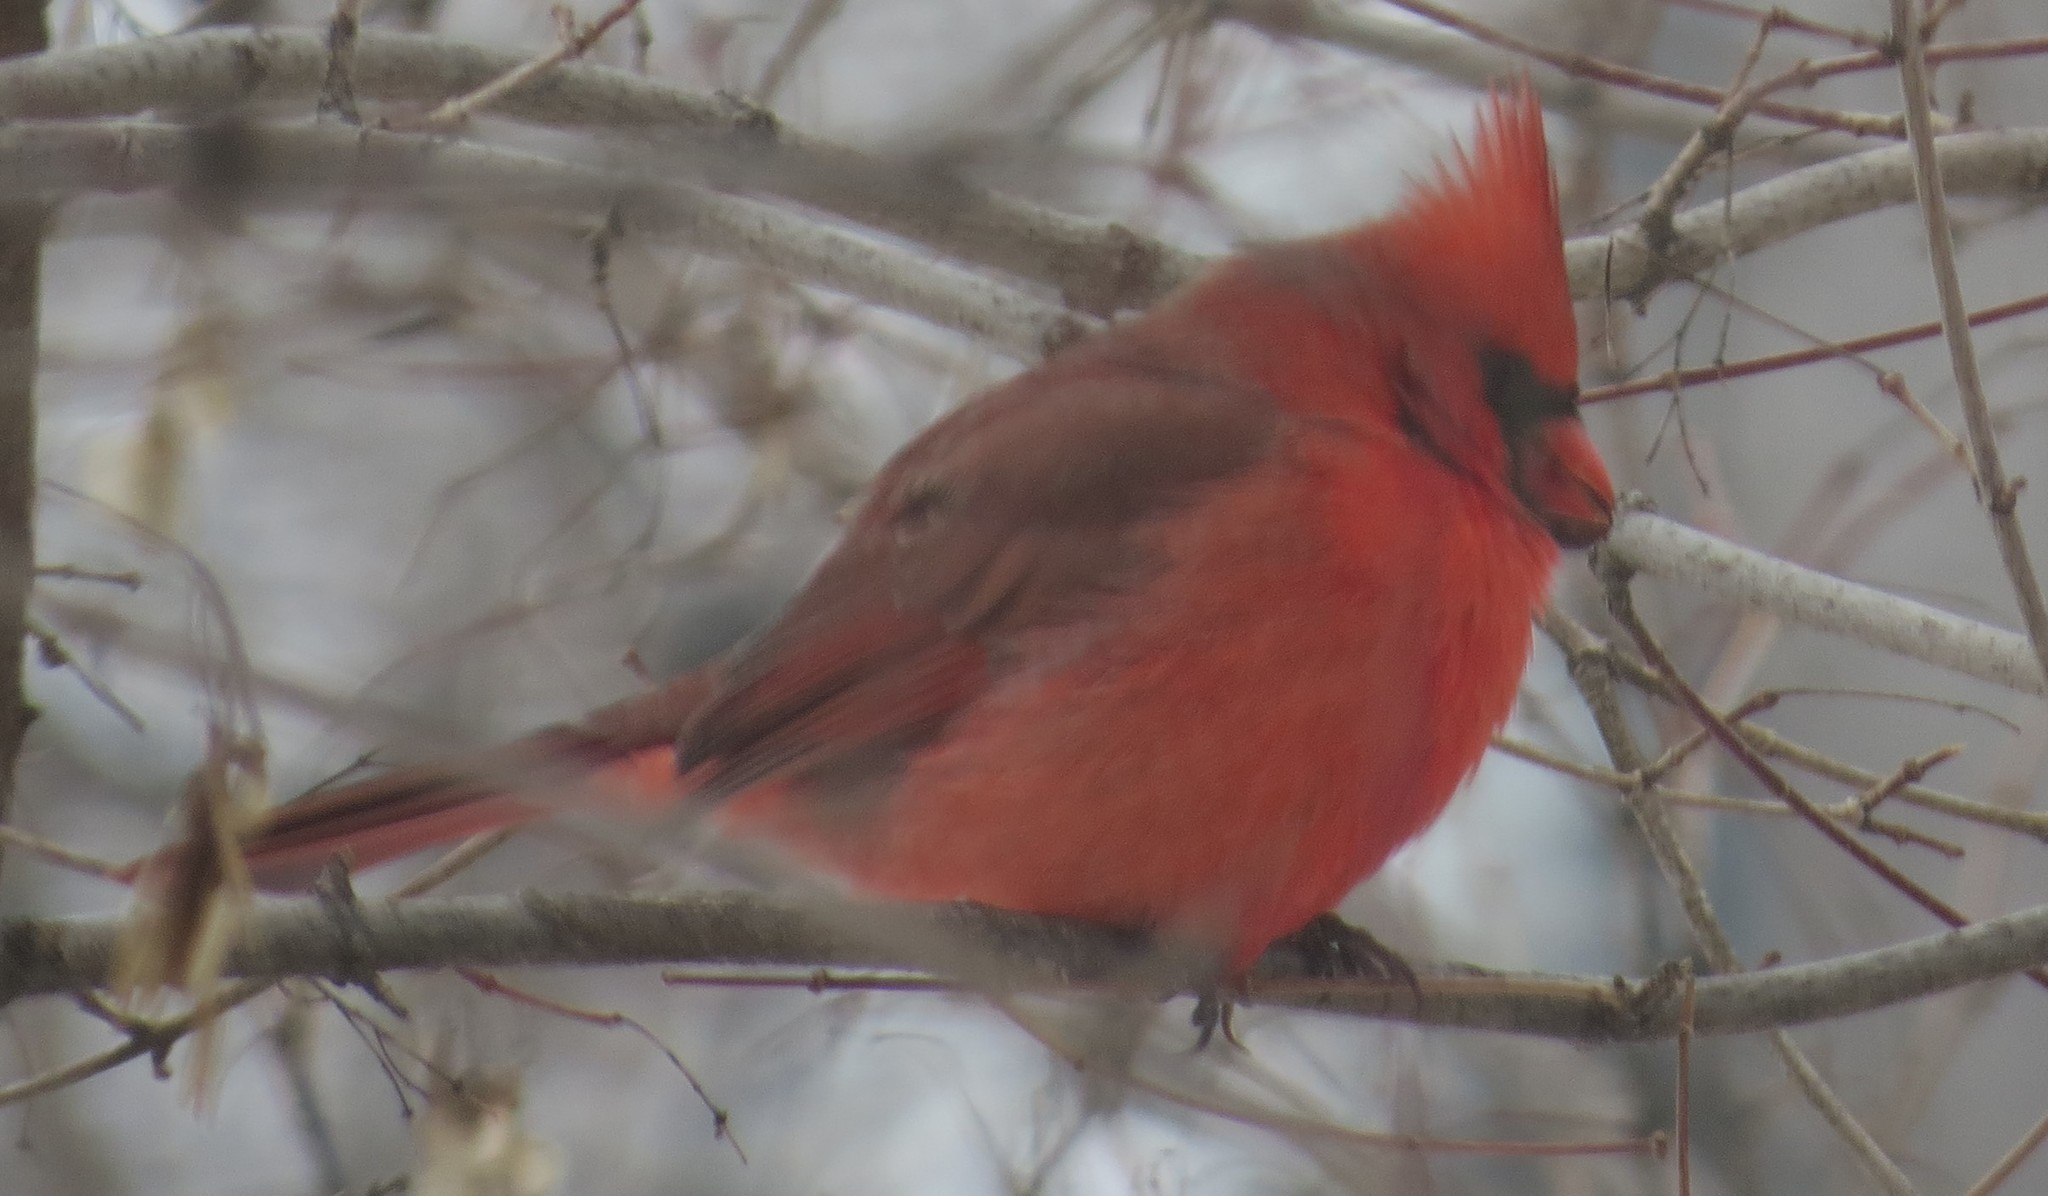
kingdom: Animalia
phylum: Chordata
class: Aves
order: Passeriformes
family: Cardinalidae
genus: Cardinalis
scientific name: Cardinalis cardinalis
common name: Northern cardinal
